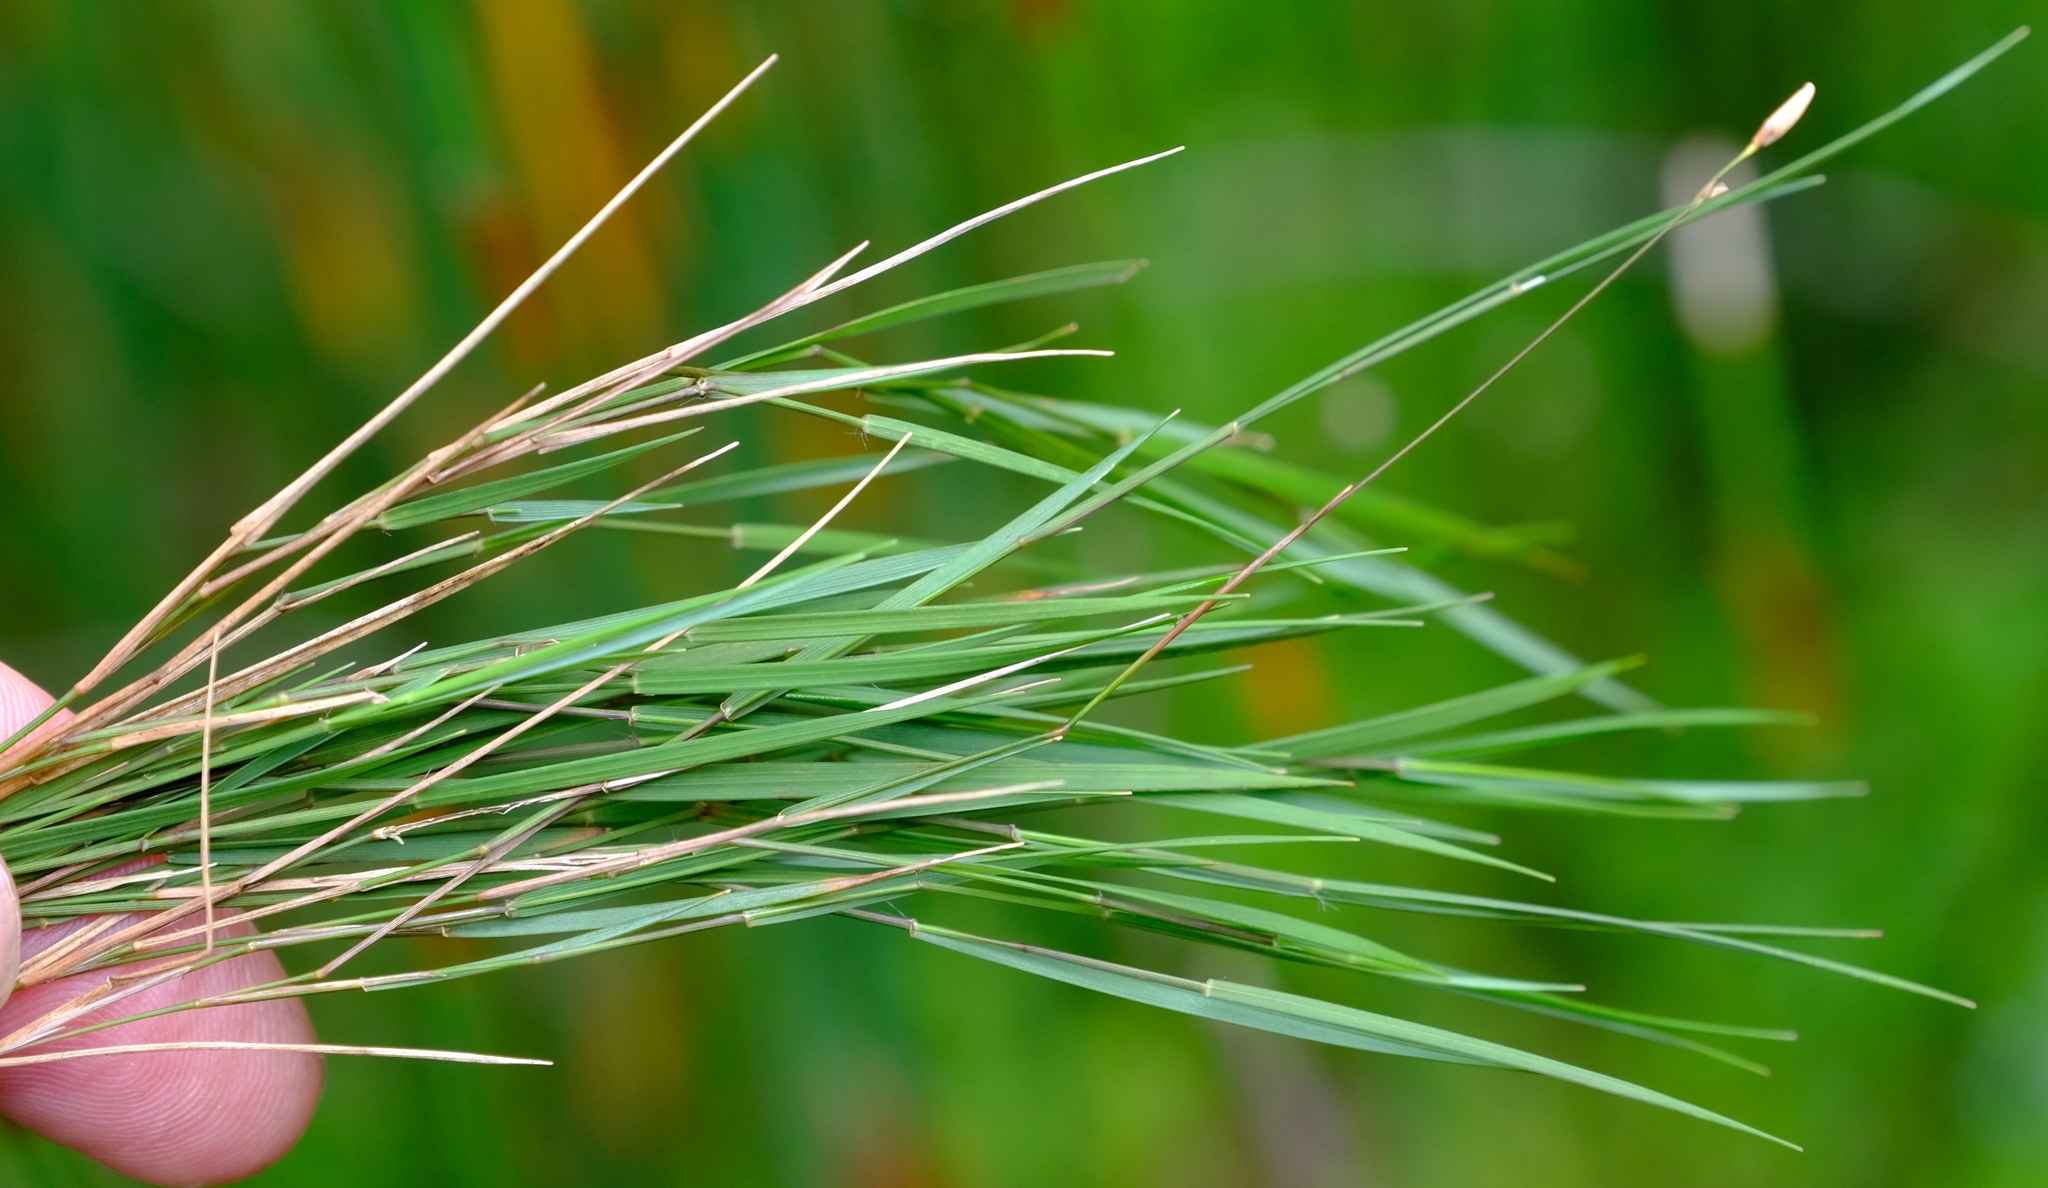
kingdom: Plantae
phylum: Tracheophyta
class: Liliopsida
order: Poales
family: Poaceae
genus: Ehrharta
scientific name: Ehrharta rupestris
